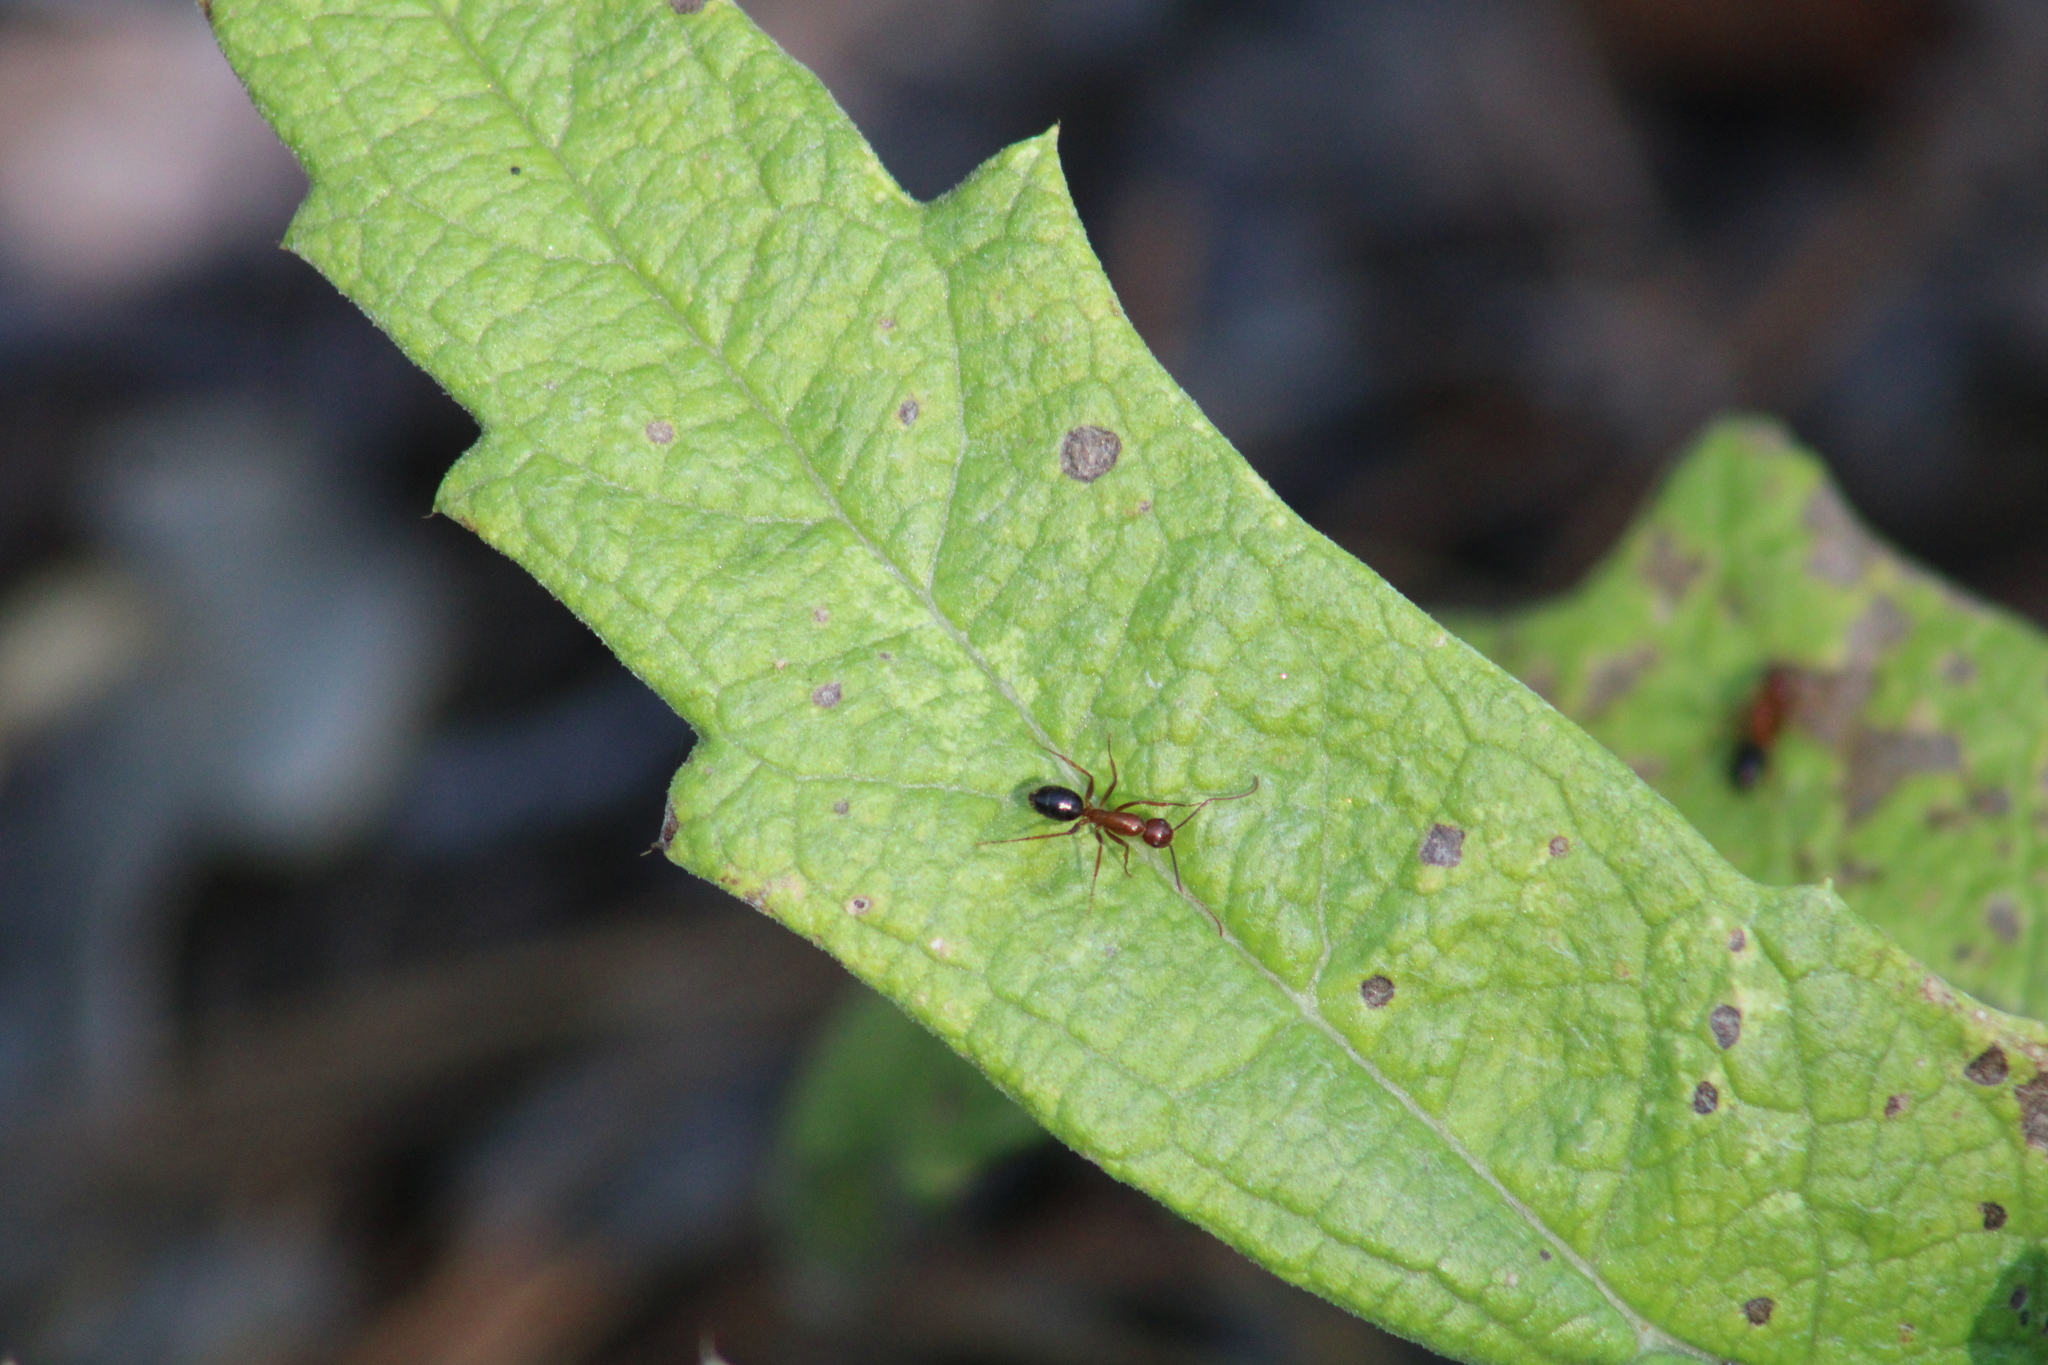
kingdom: Animalia
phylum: Arthropoda
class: Insecta
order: Hymenoptera
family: Formicidae
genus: Camponotus
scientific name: Camponotus floridanus
